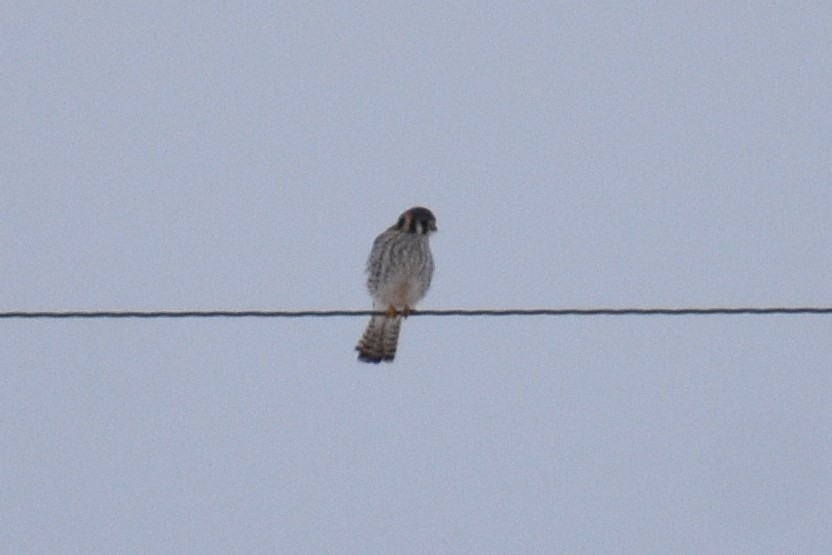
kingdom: Animalia
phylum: Chordata
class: Aves
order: Falconiformes
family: Falconidae
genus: Falco
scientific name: Falco sparverius
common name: American kestrel
